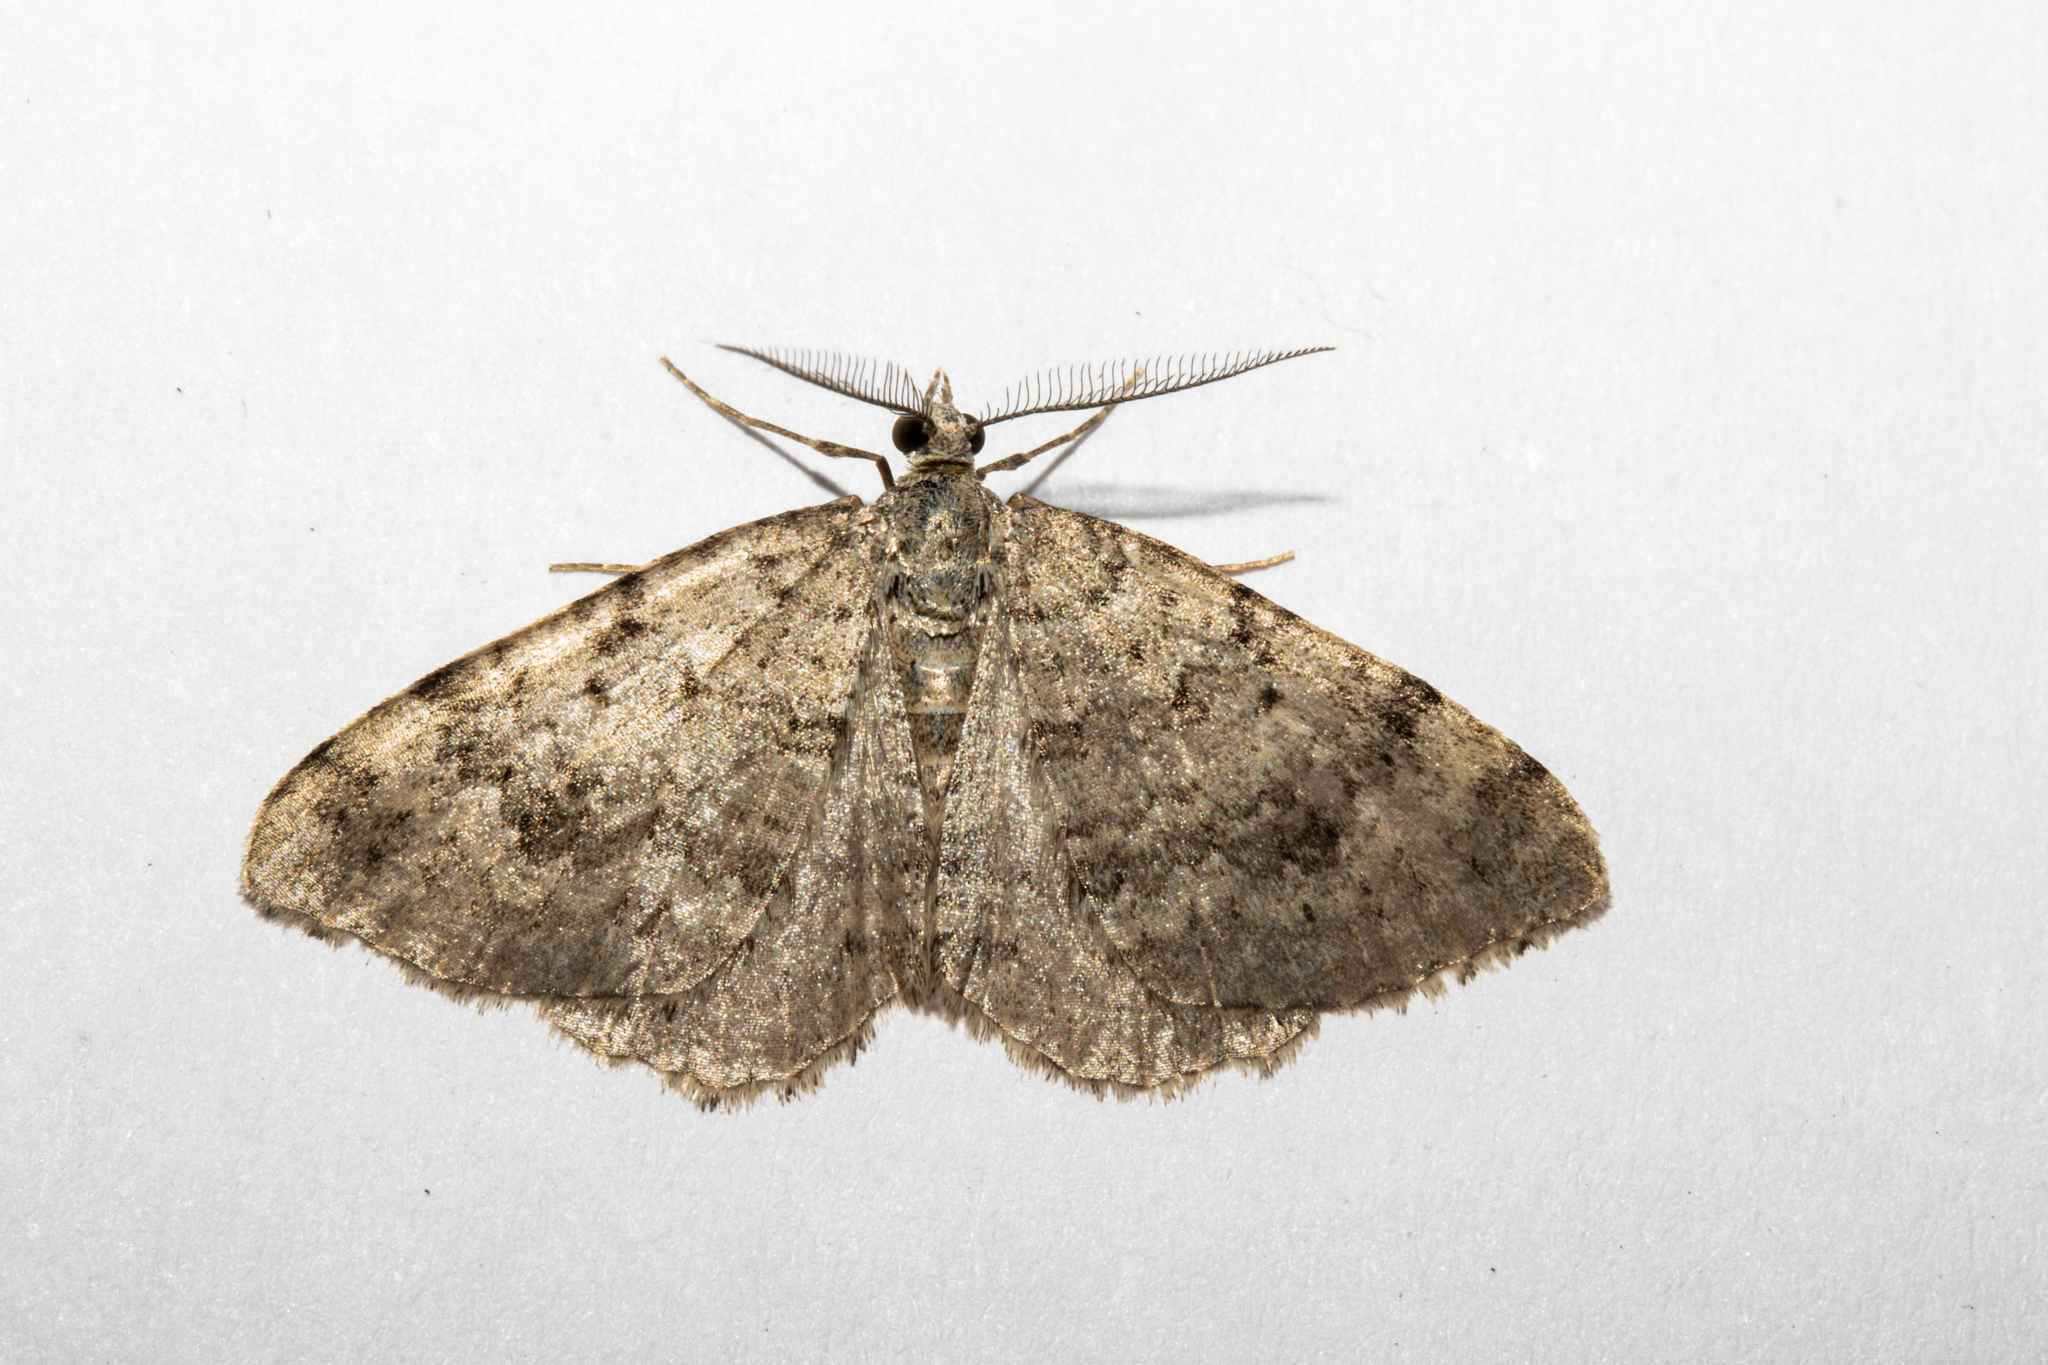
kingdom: Animalia
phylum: Arthropoda
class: Insecta
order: Lepidoptera
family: Geometridae
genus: Helastia
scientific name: Helastia corcularia
